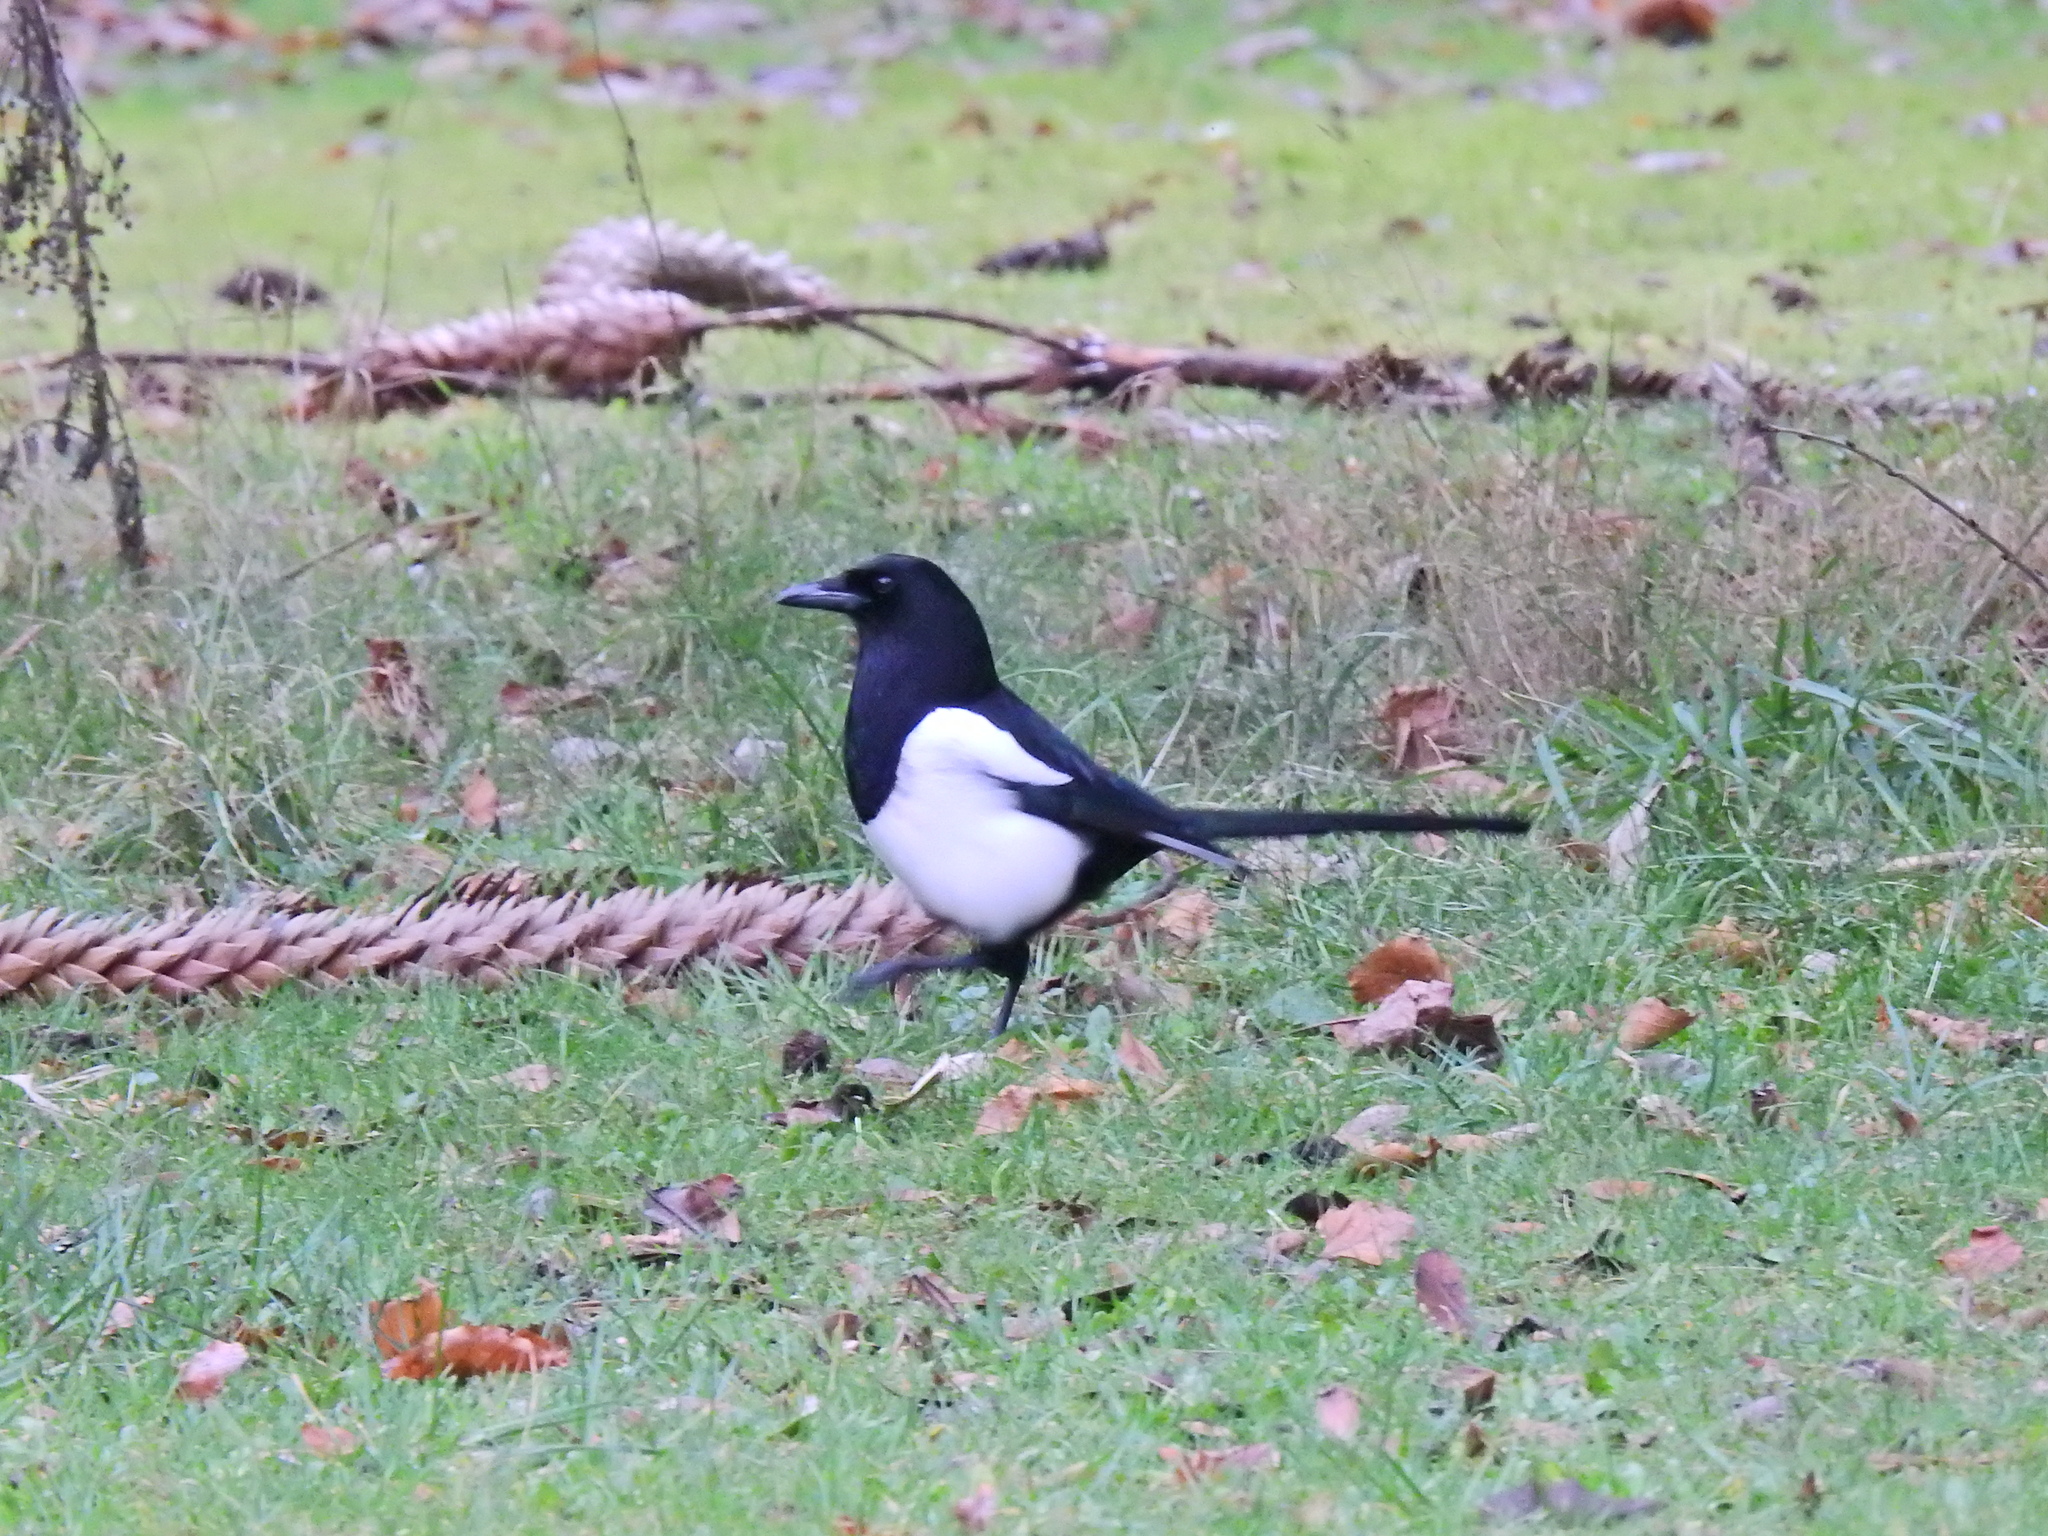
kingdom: Animalia
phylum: Chordata
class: Aves
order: Passeriformes
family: Corvidae
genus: Pica
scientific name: Pica pica
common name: Eurasian magpie
